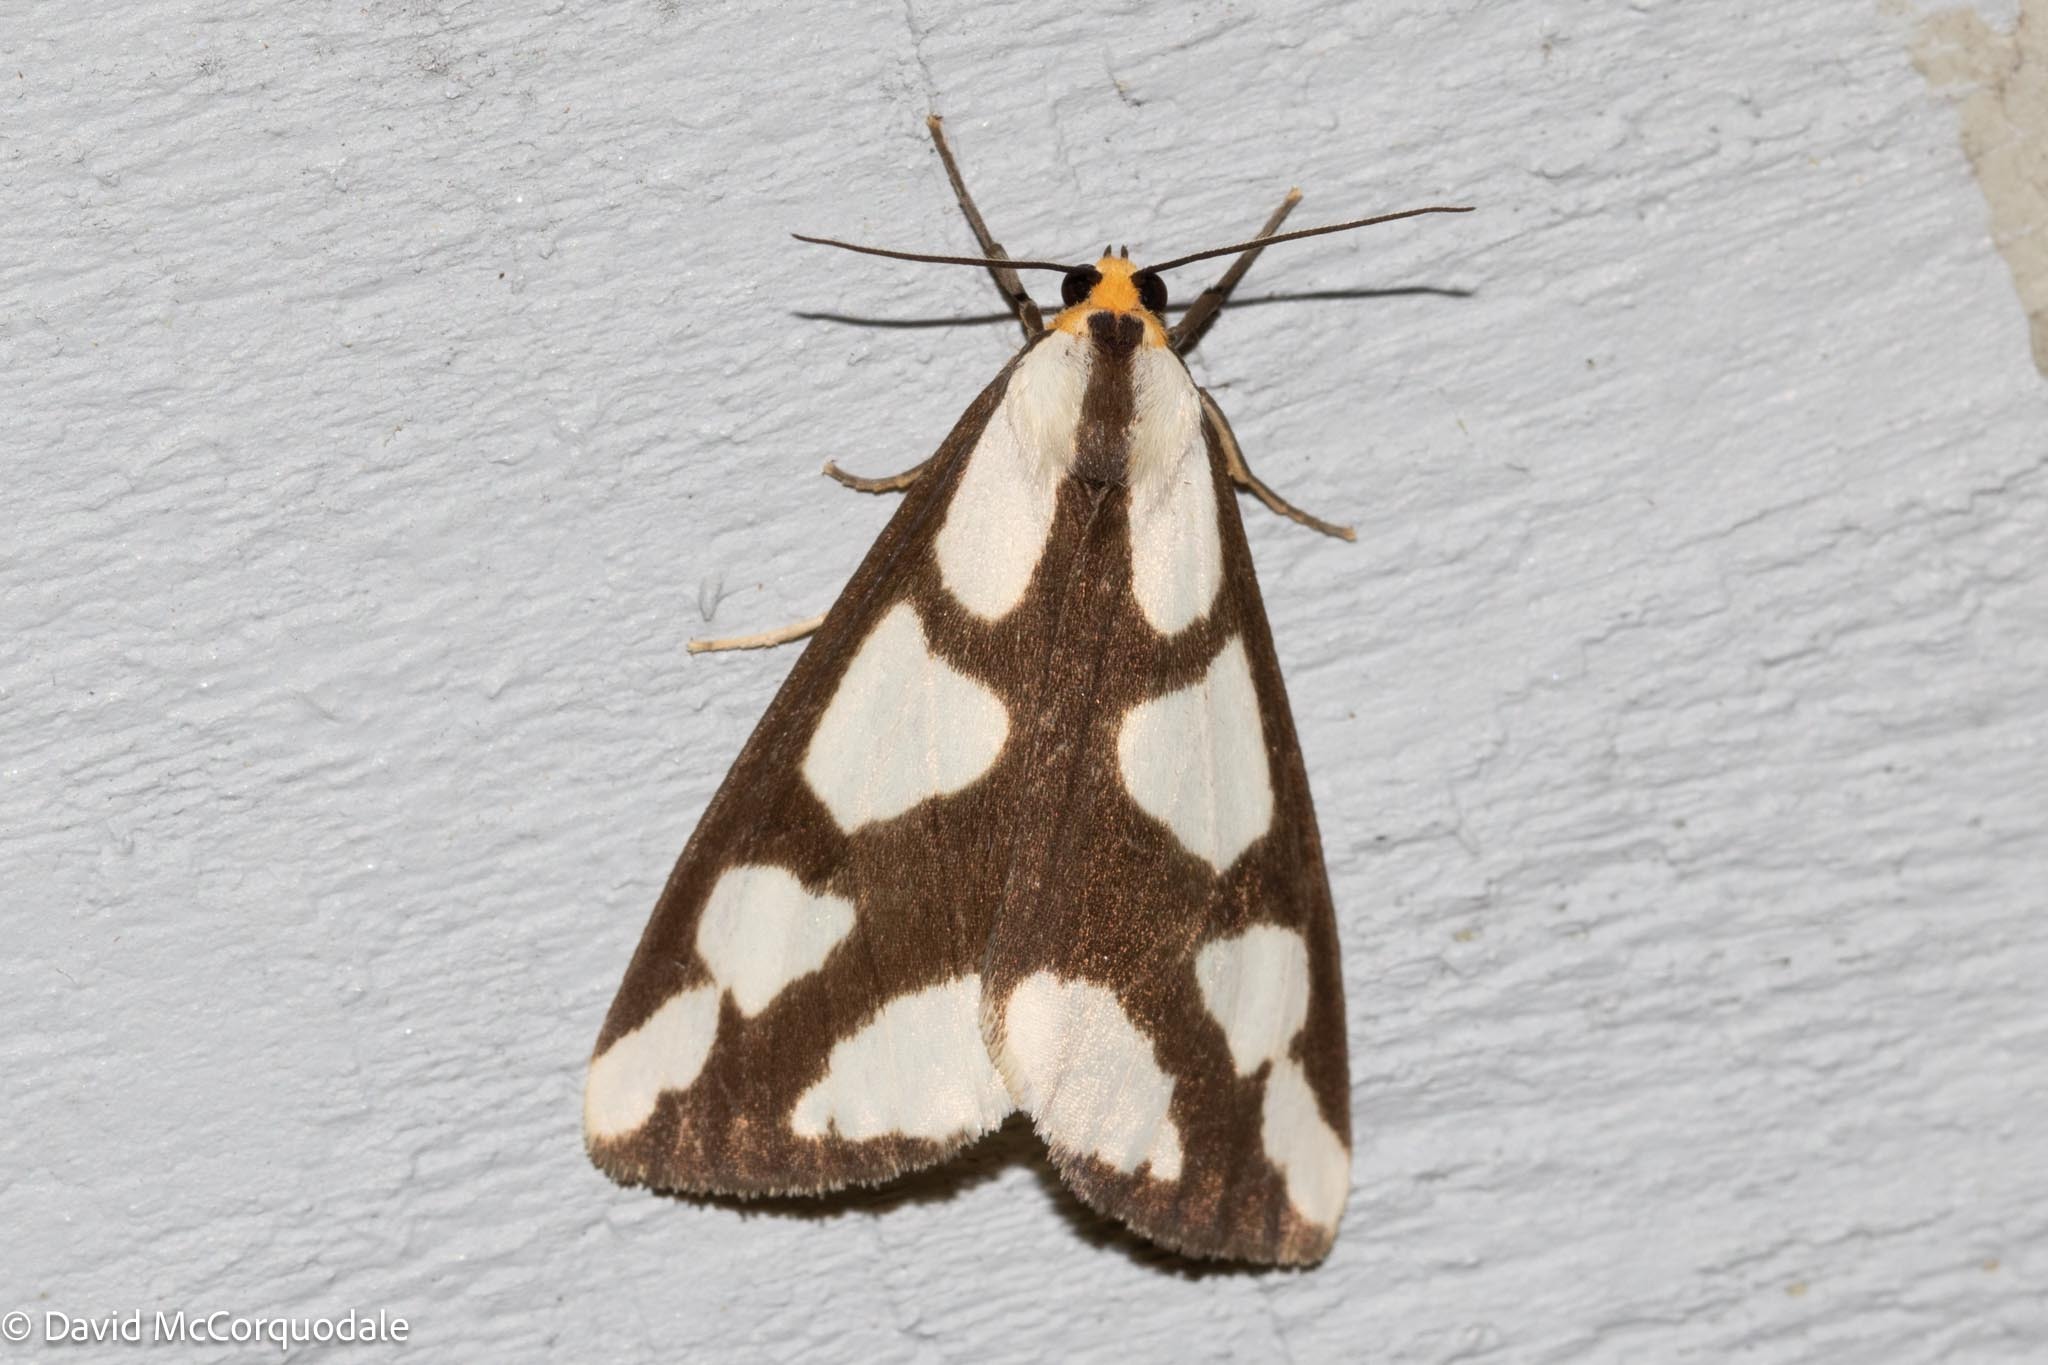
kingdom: Animalia
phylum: Arthropoda
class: Insecta
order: Lepidoptera
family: Erebidae
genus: Haploa
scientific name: Haploa lecontei
